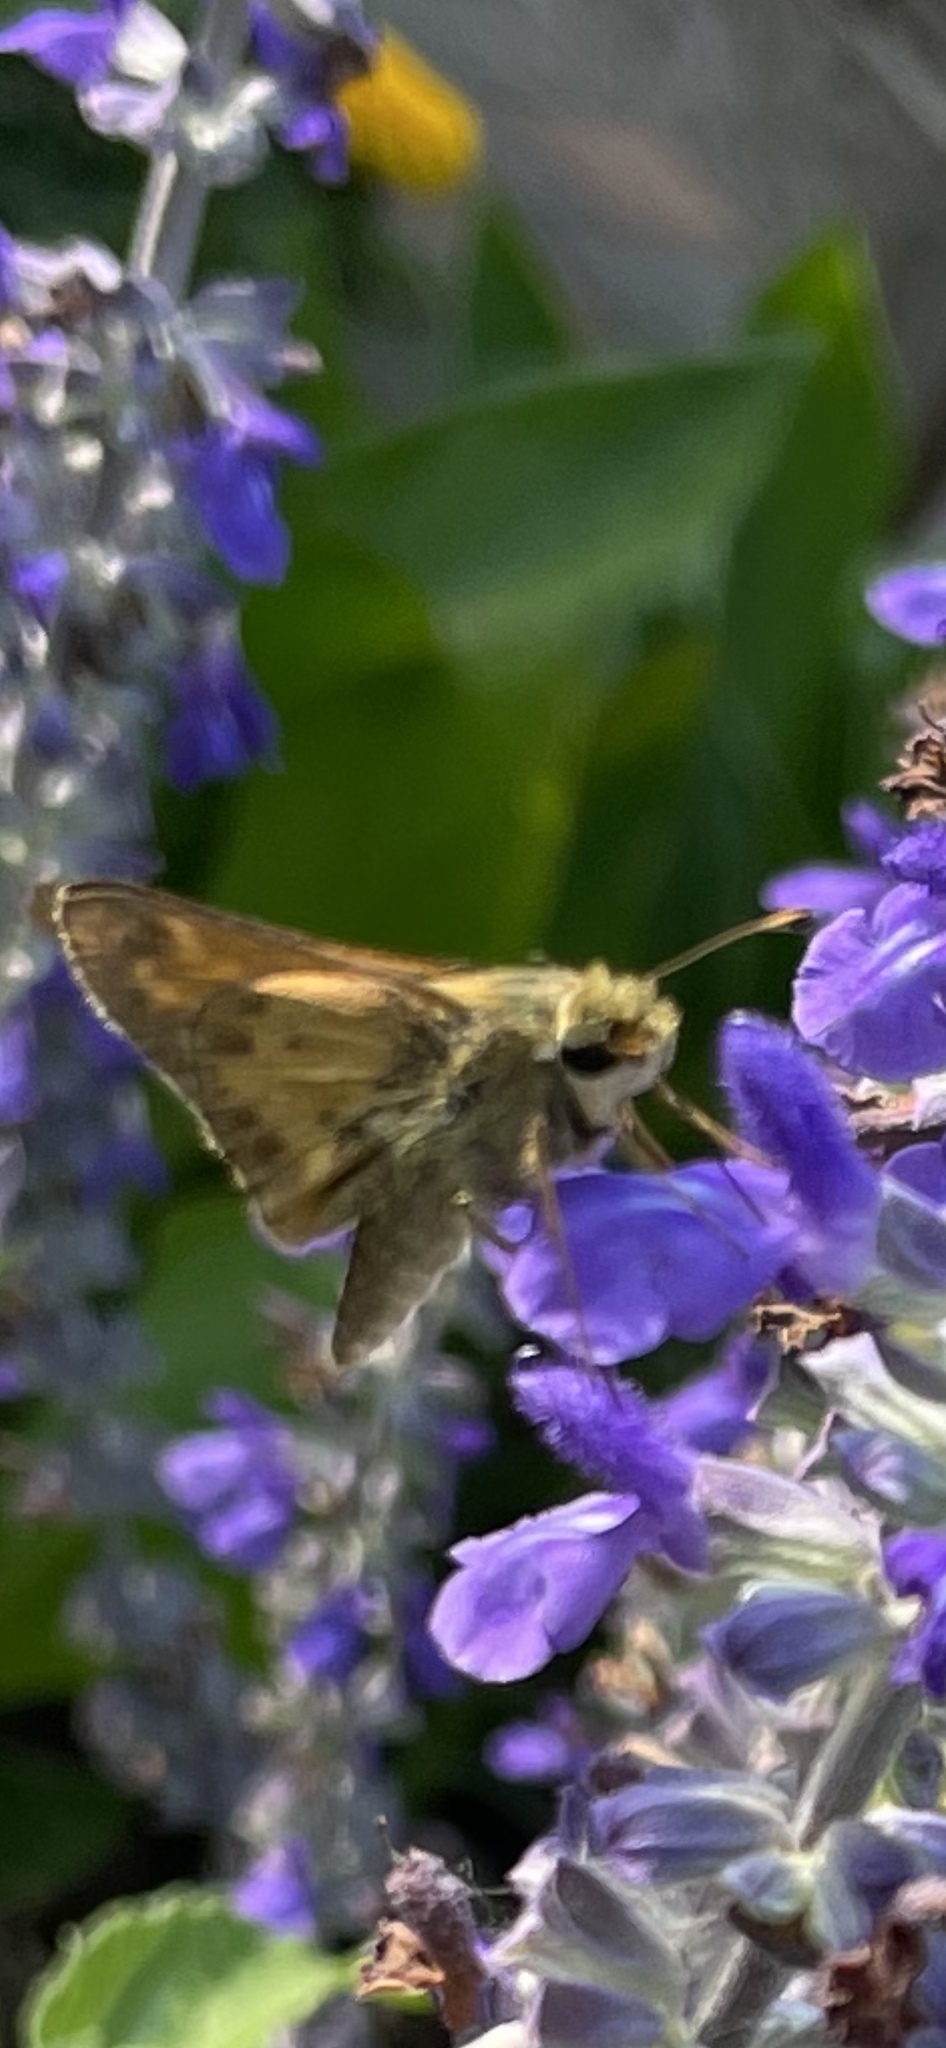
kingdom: Animalia
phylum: Arthropoda
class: Insecta
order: Lepidoptera
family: Hesperiidae
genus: Lon
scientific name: Lon zabulon
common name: Zabulon skipper
